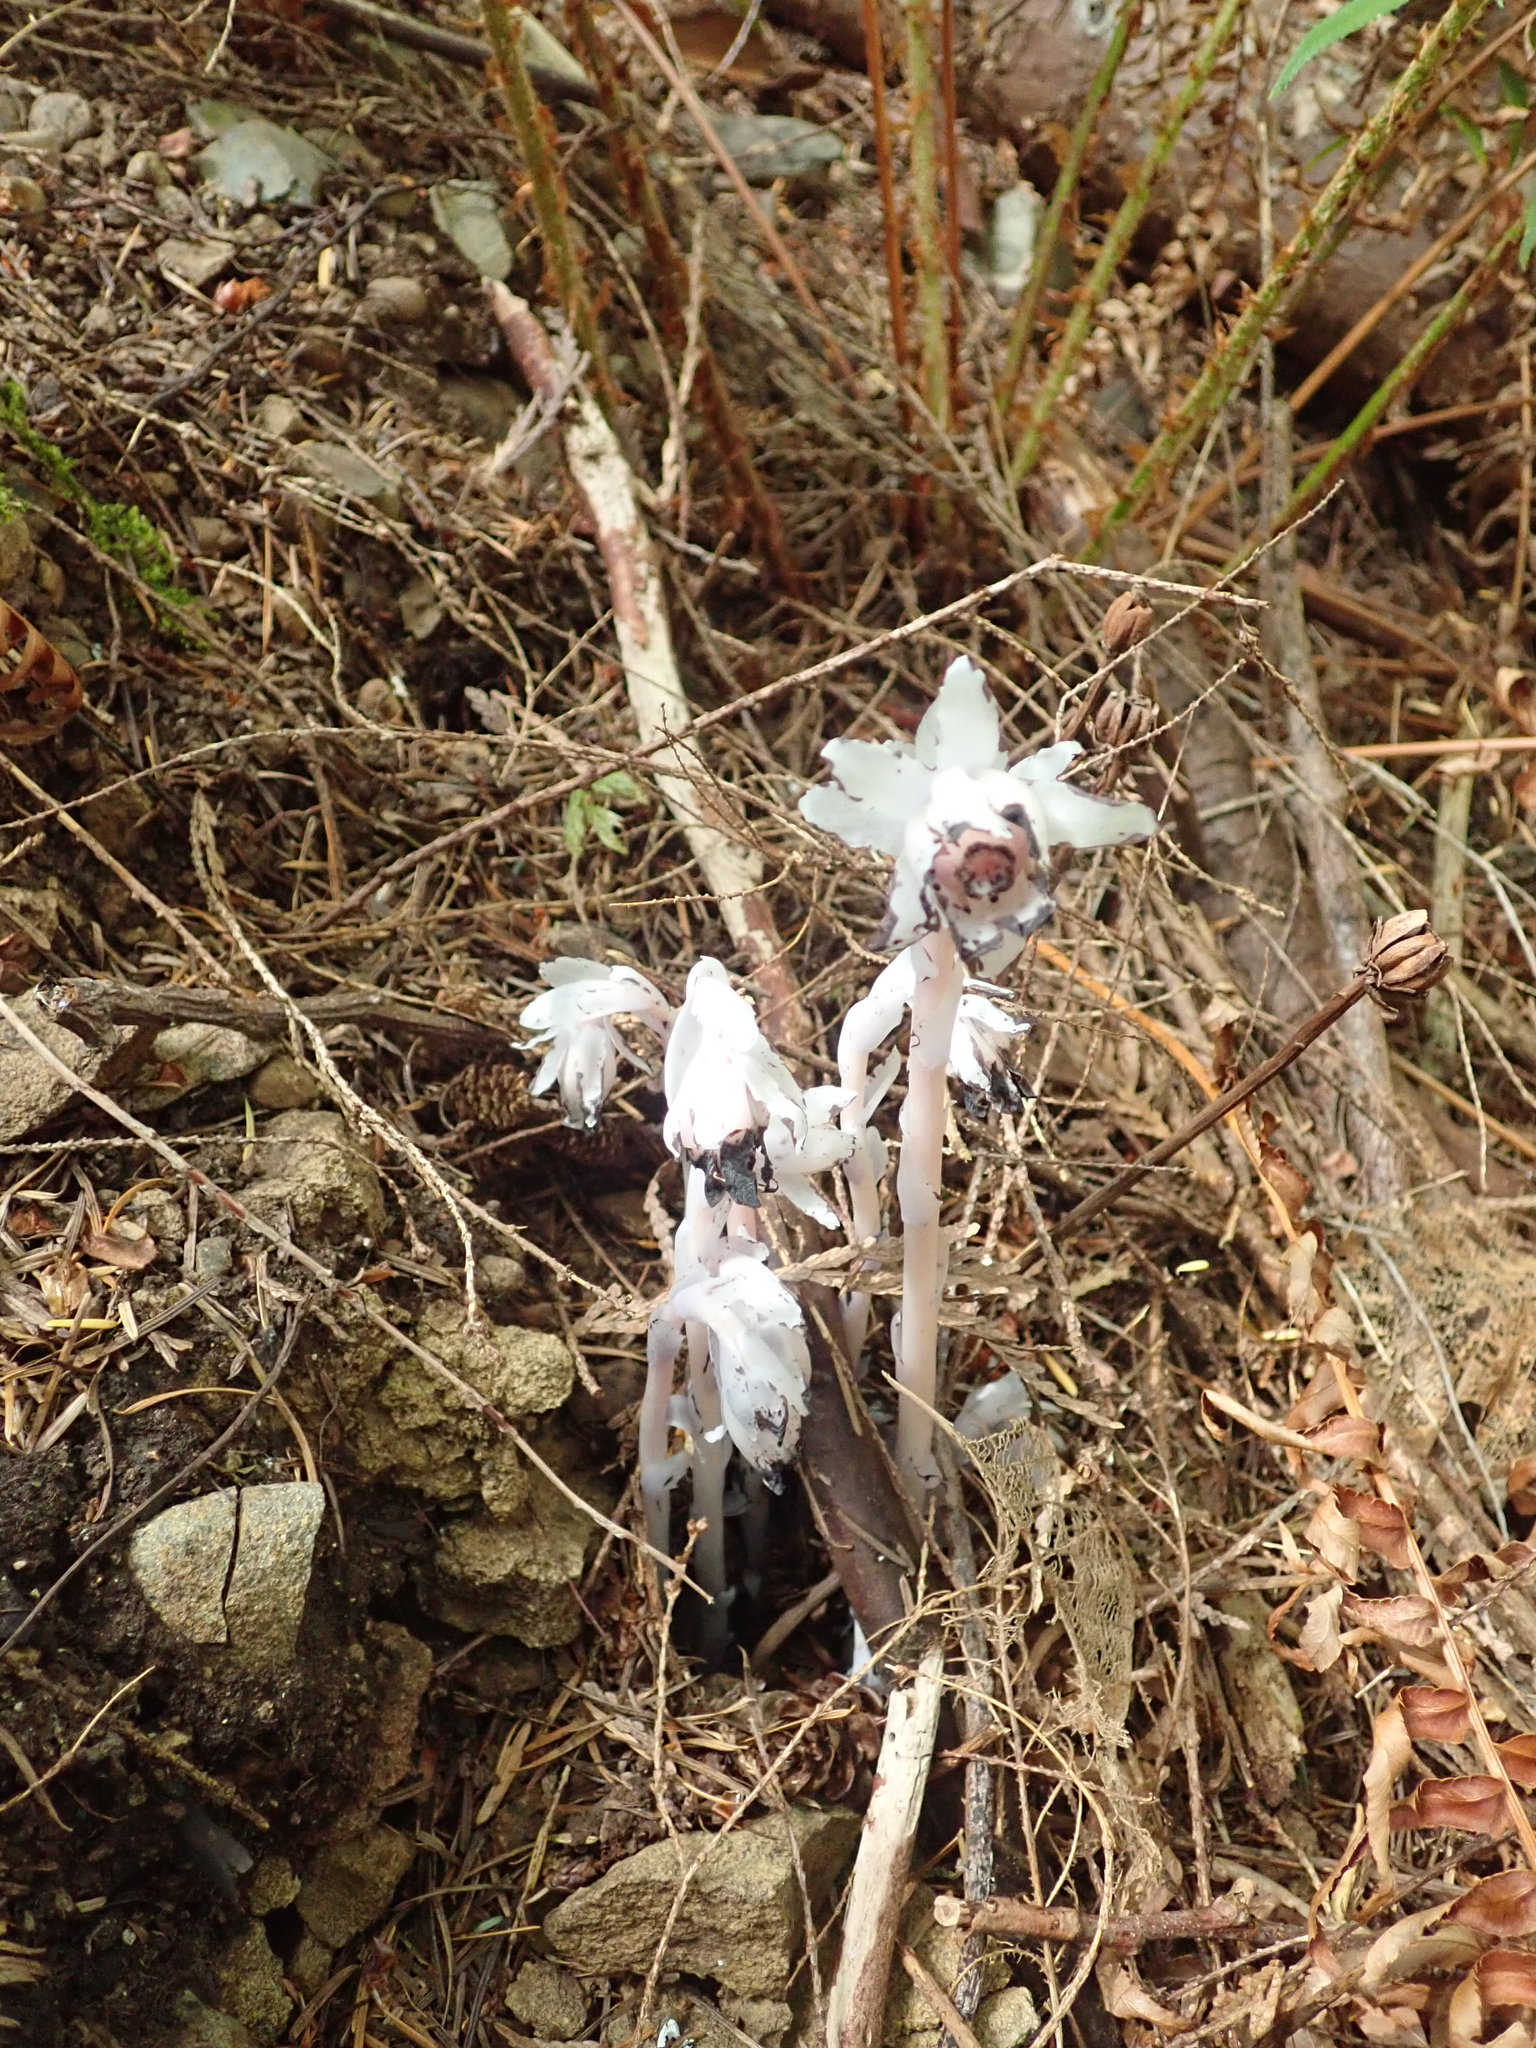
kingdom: Plantae
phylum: Tracheophyta
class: Magnoliopsida
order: Ericales
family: Ericaceae
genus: Monotropa
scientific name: Monotropa uniflora
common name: Convulsion root
